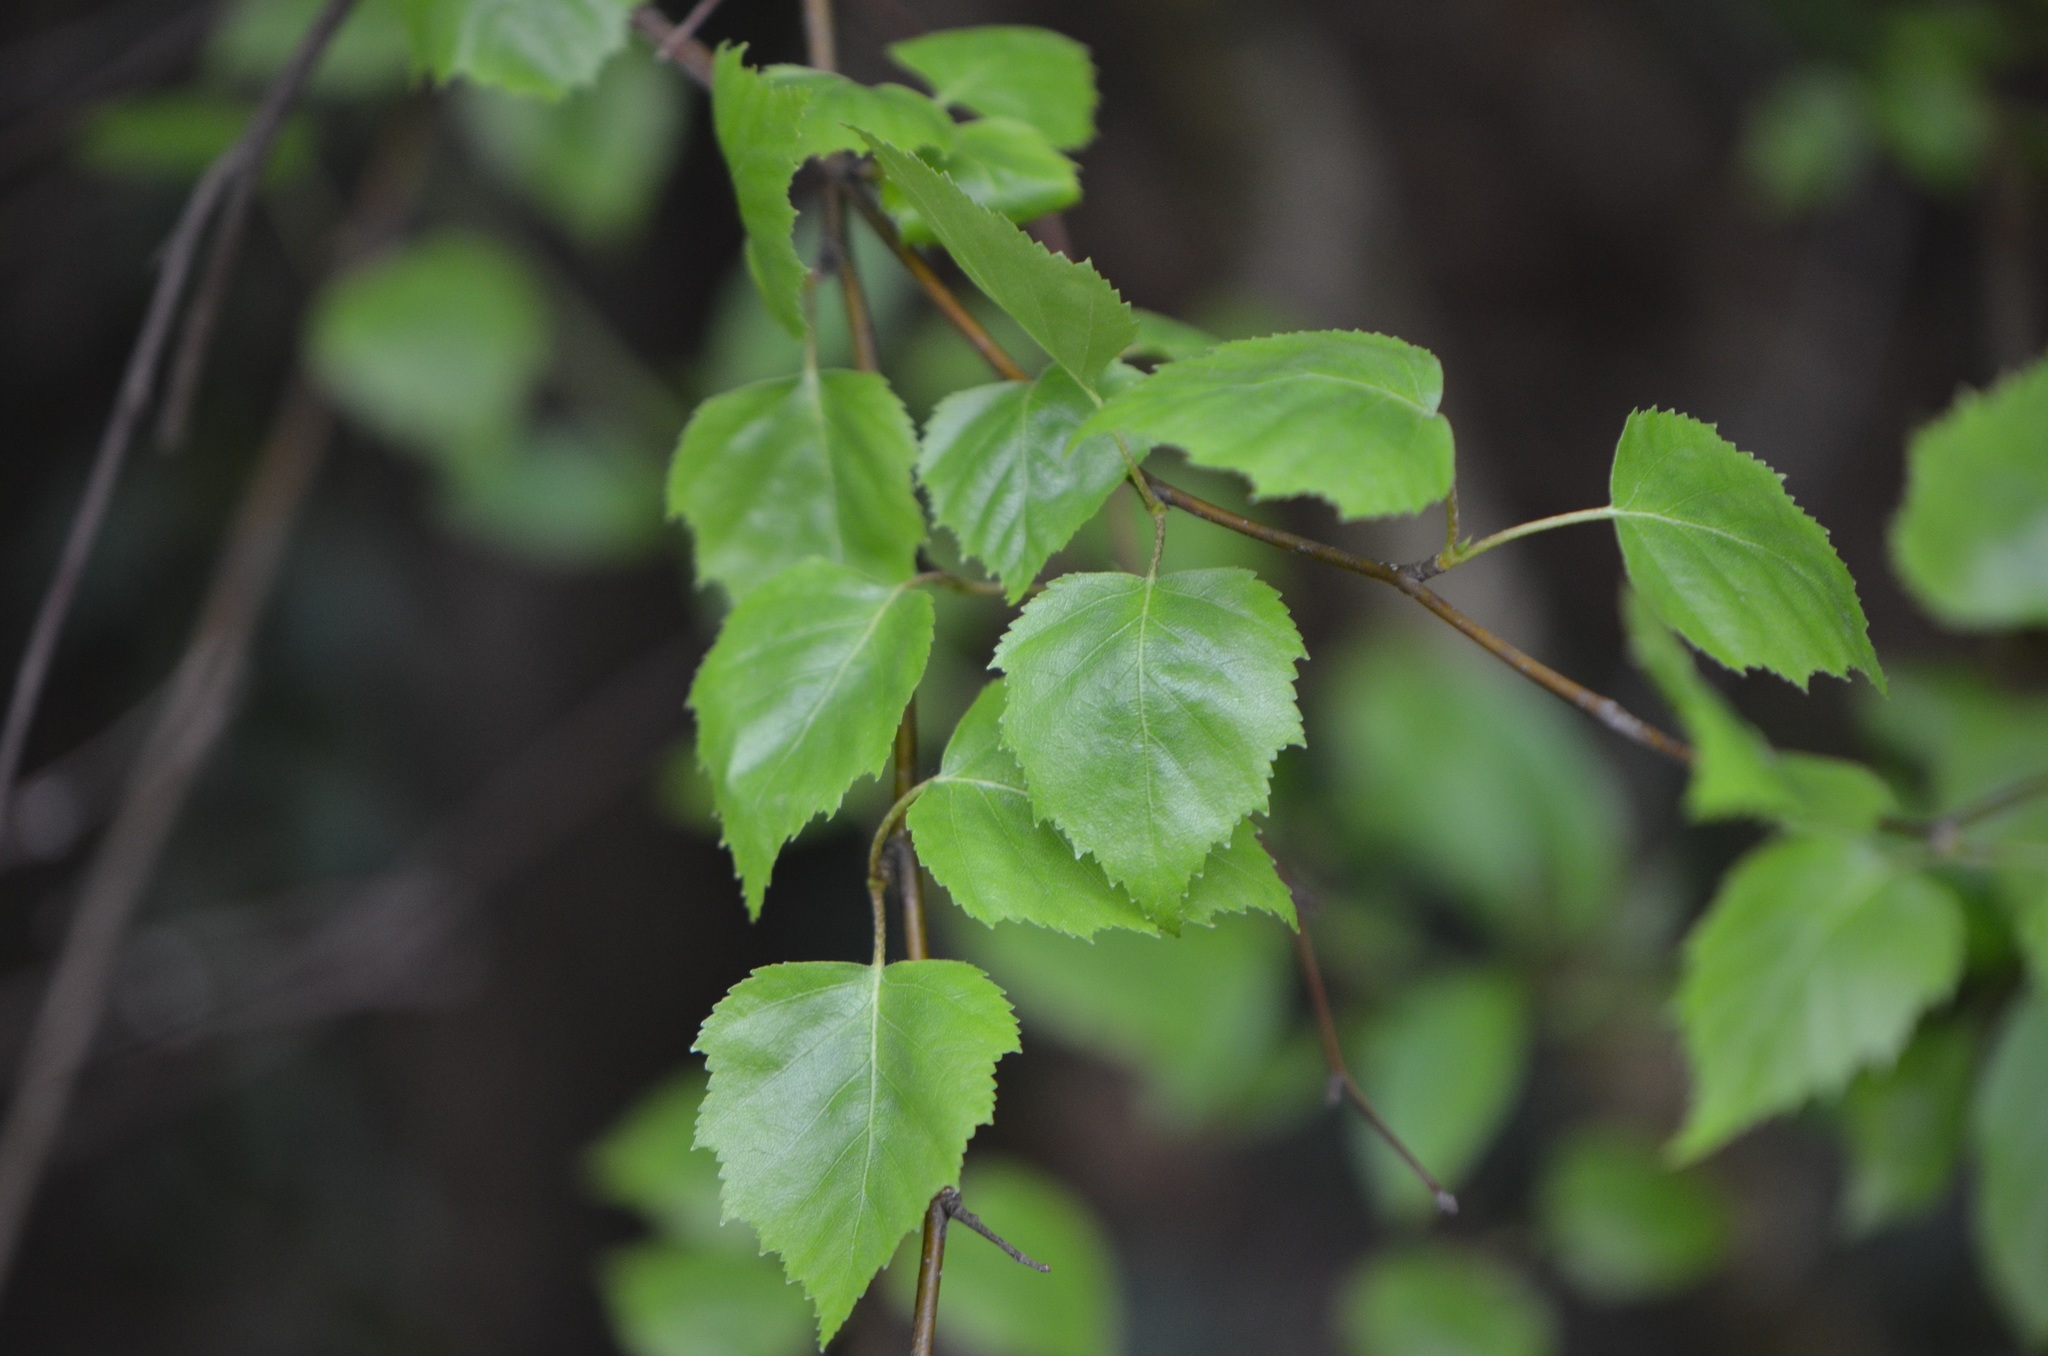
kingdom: Plantae
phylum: Tracheophyta
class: Magnoliopsida
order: Fagales
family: Betulaceae
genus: Betula
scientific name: Betula pendula
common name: Silver birch
